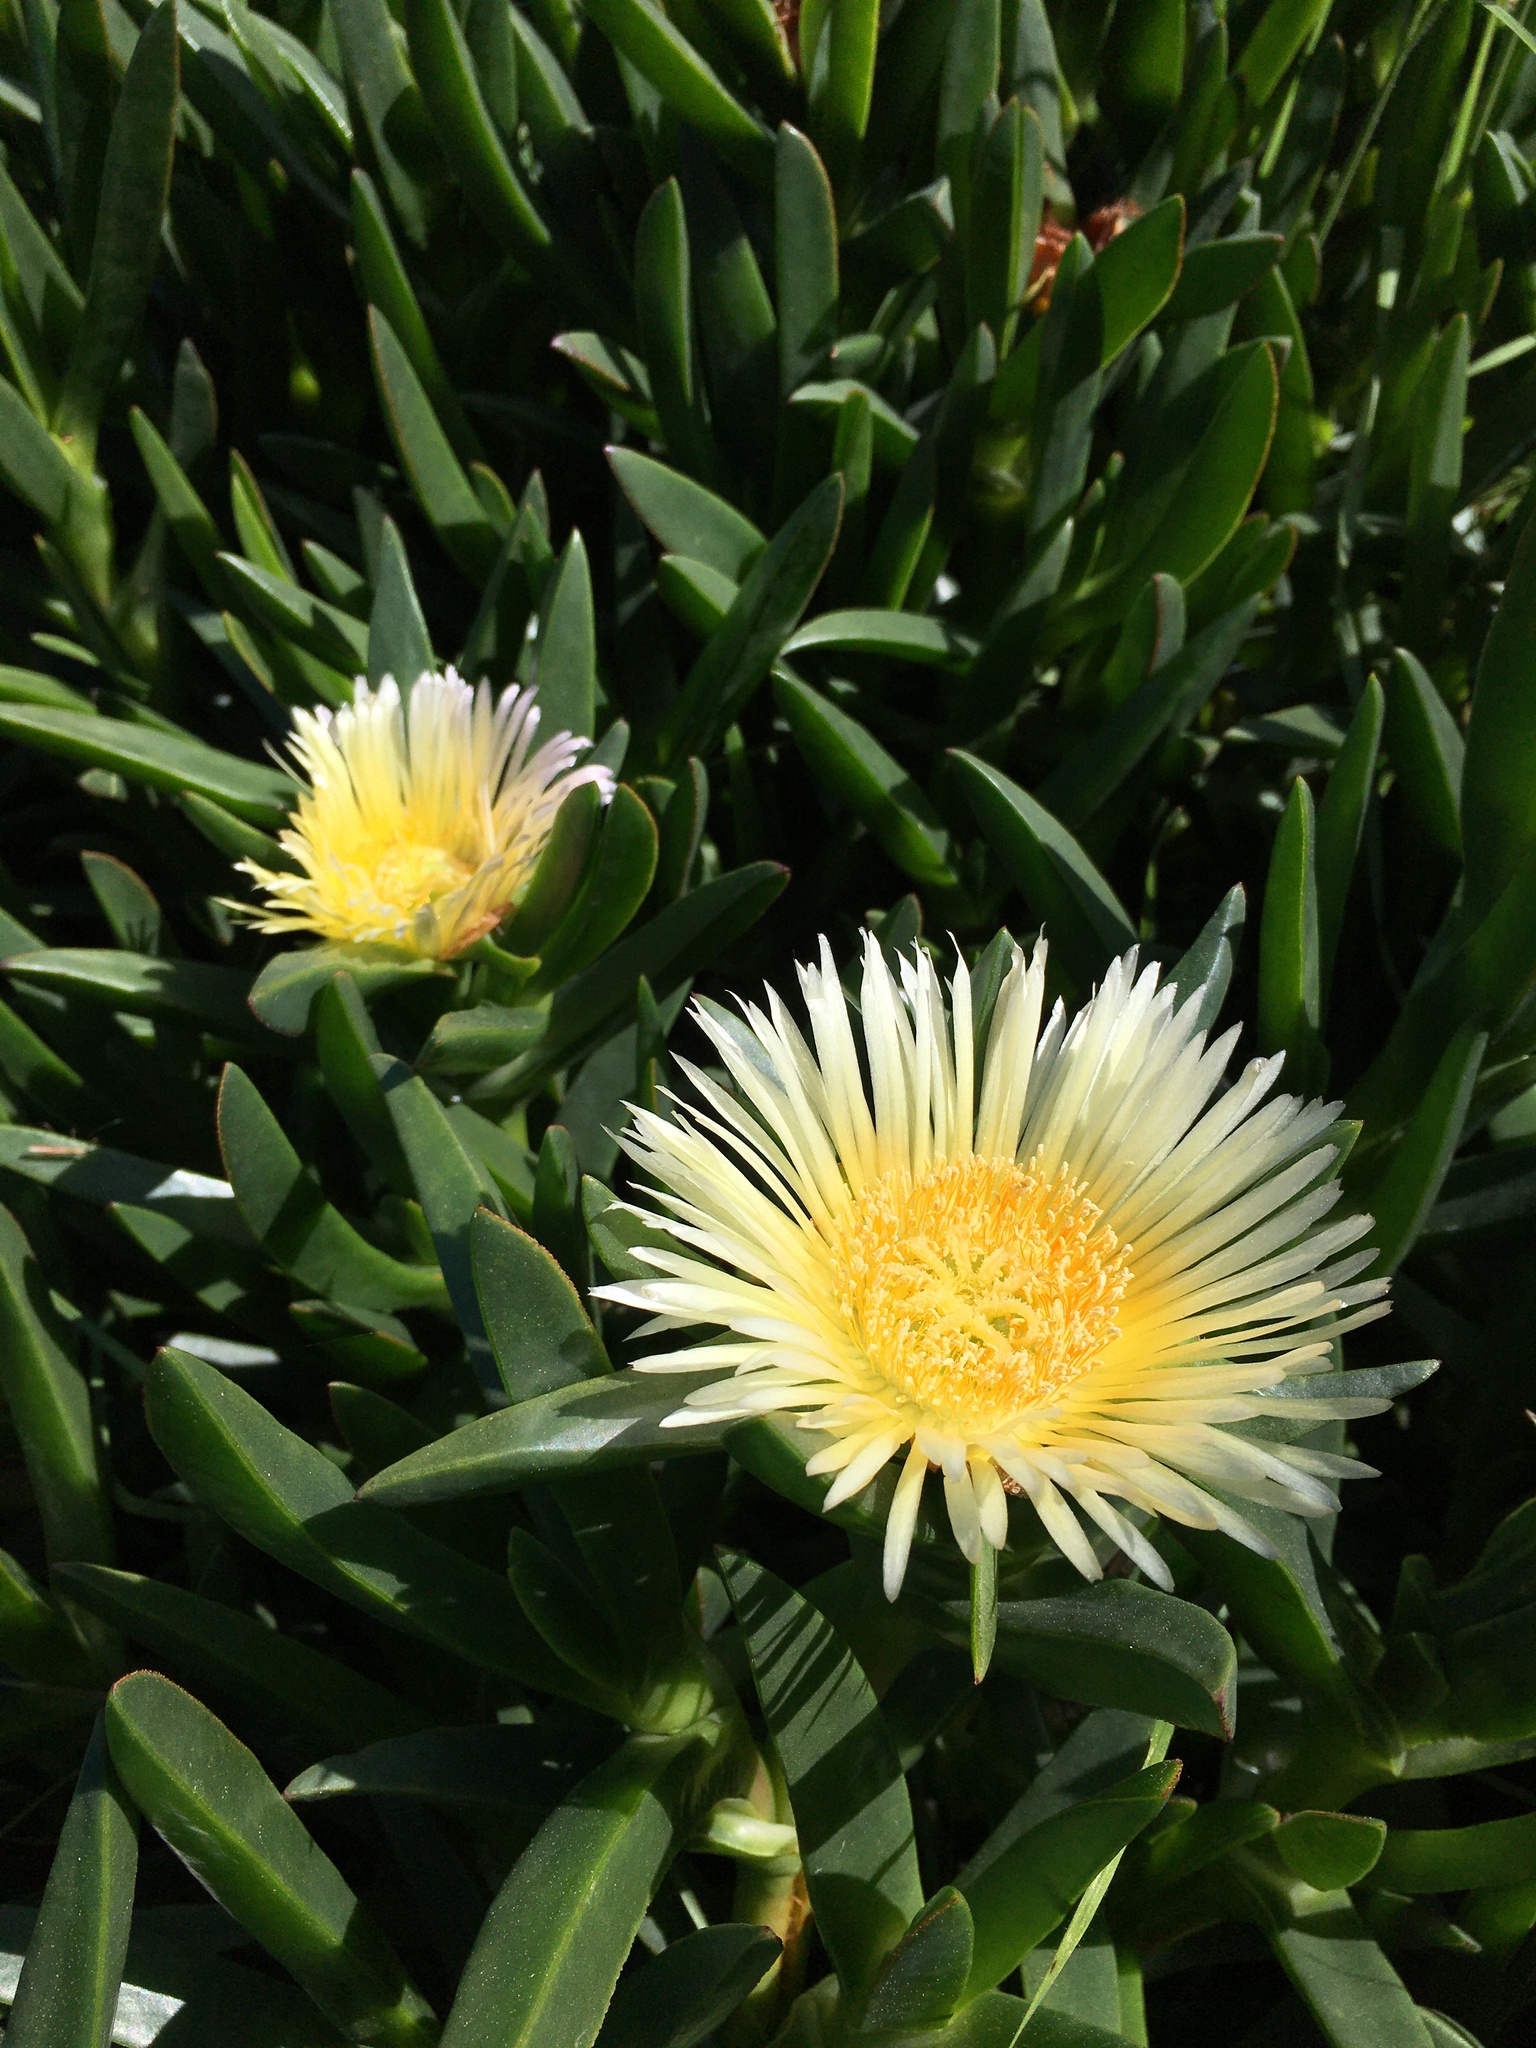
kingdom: Plantae
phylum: Tracheophyta
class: Magnoliopsida
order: Caryophyllales
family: Aizoaceae
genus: Carpobrotus
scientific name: Carpobrotus edulis
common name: Hottentot-fig
